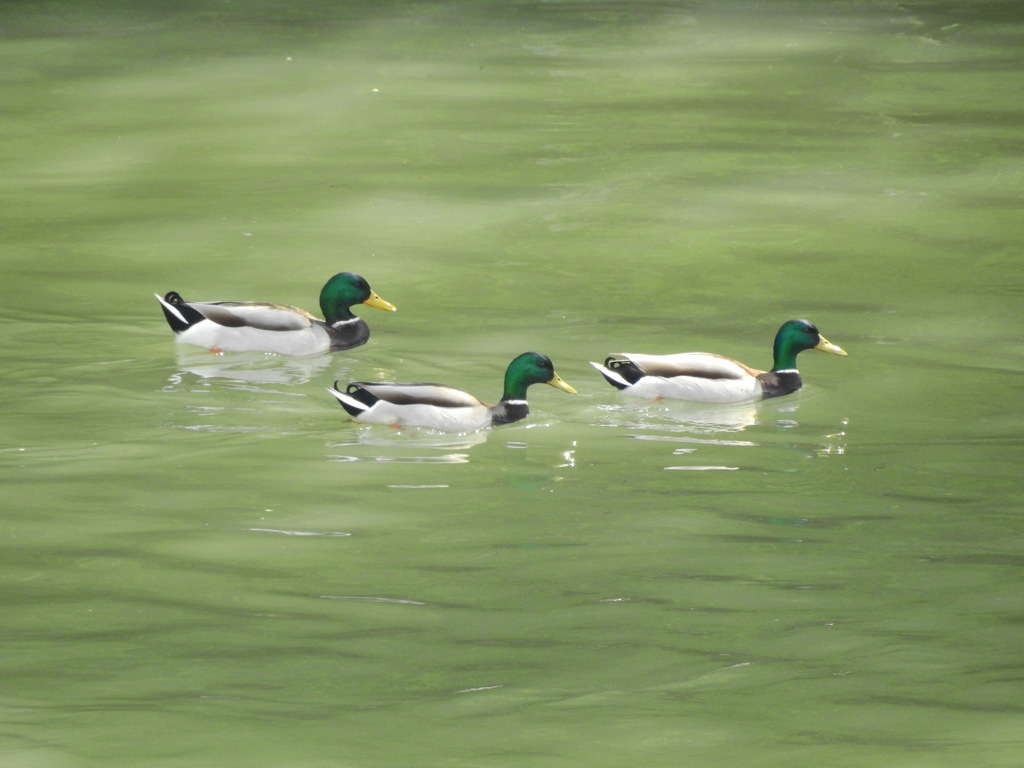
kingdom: Animalia
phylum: Chordata
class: Aves
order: Anseriformes
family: Anatidae
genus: Anas
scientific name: Anas platyrhynchos
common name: Mallard
